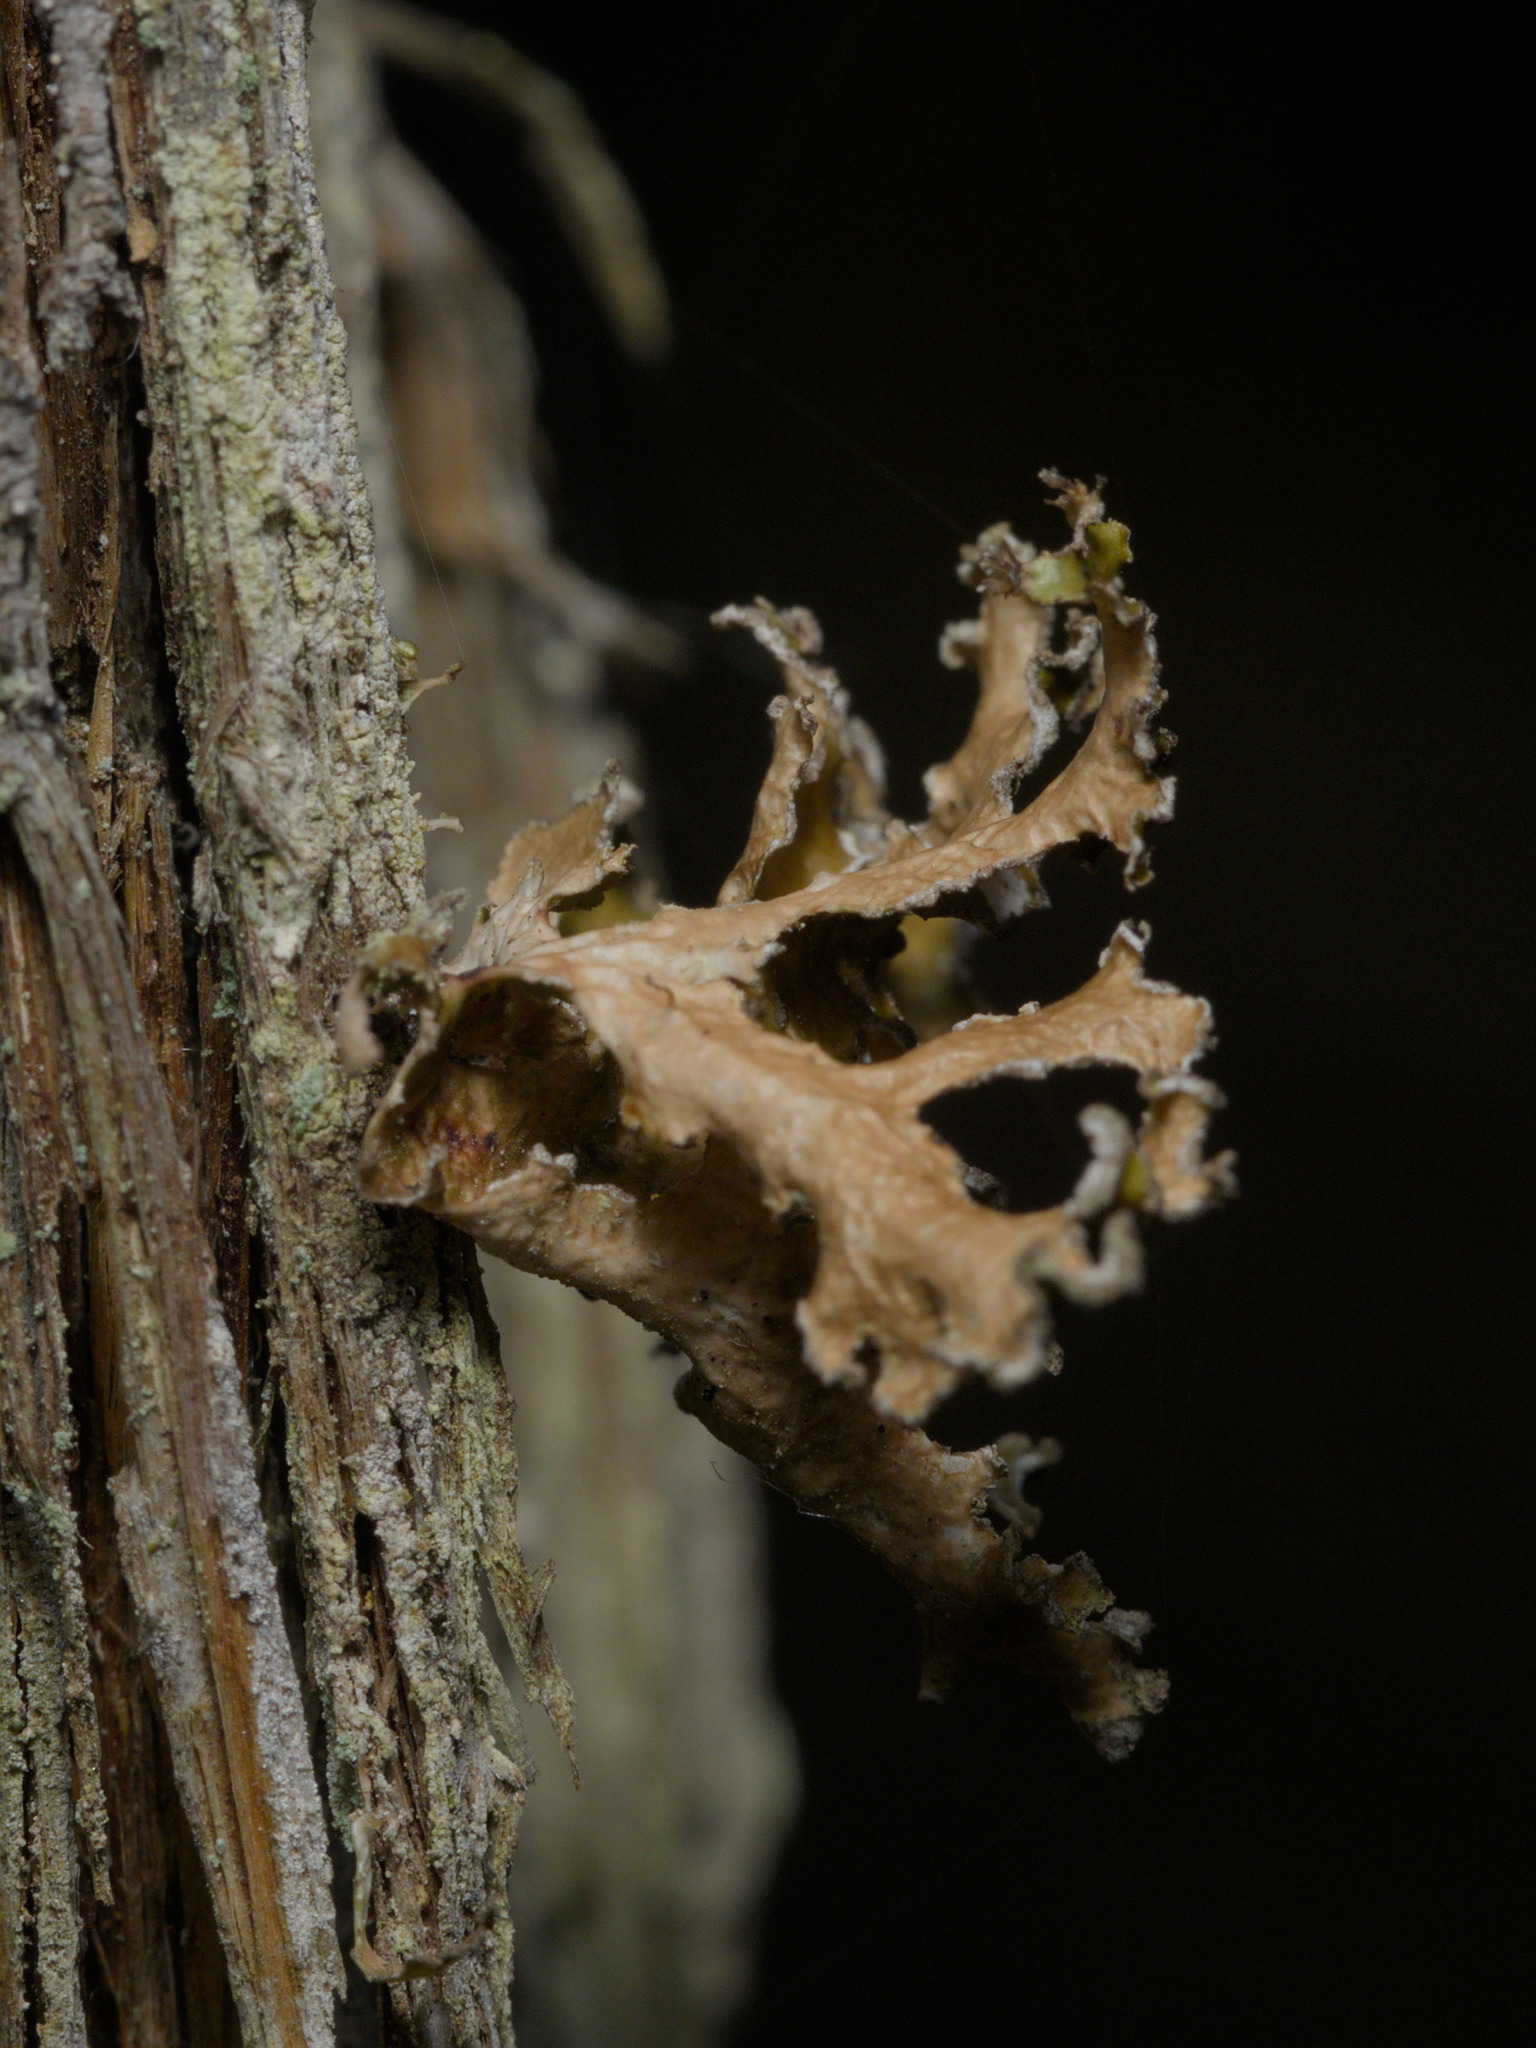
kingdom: Fungi
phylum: Ascomycota
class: Lecanoromycetes
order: Lecanorales
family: Parmeliaceae
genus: Nephromopsis
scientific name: Nephromopsis chlorophylla
